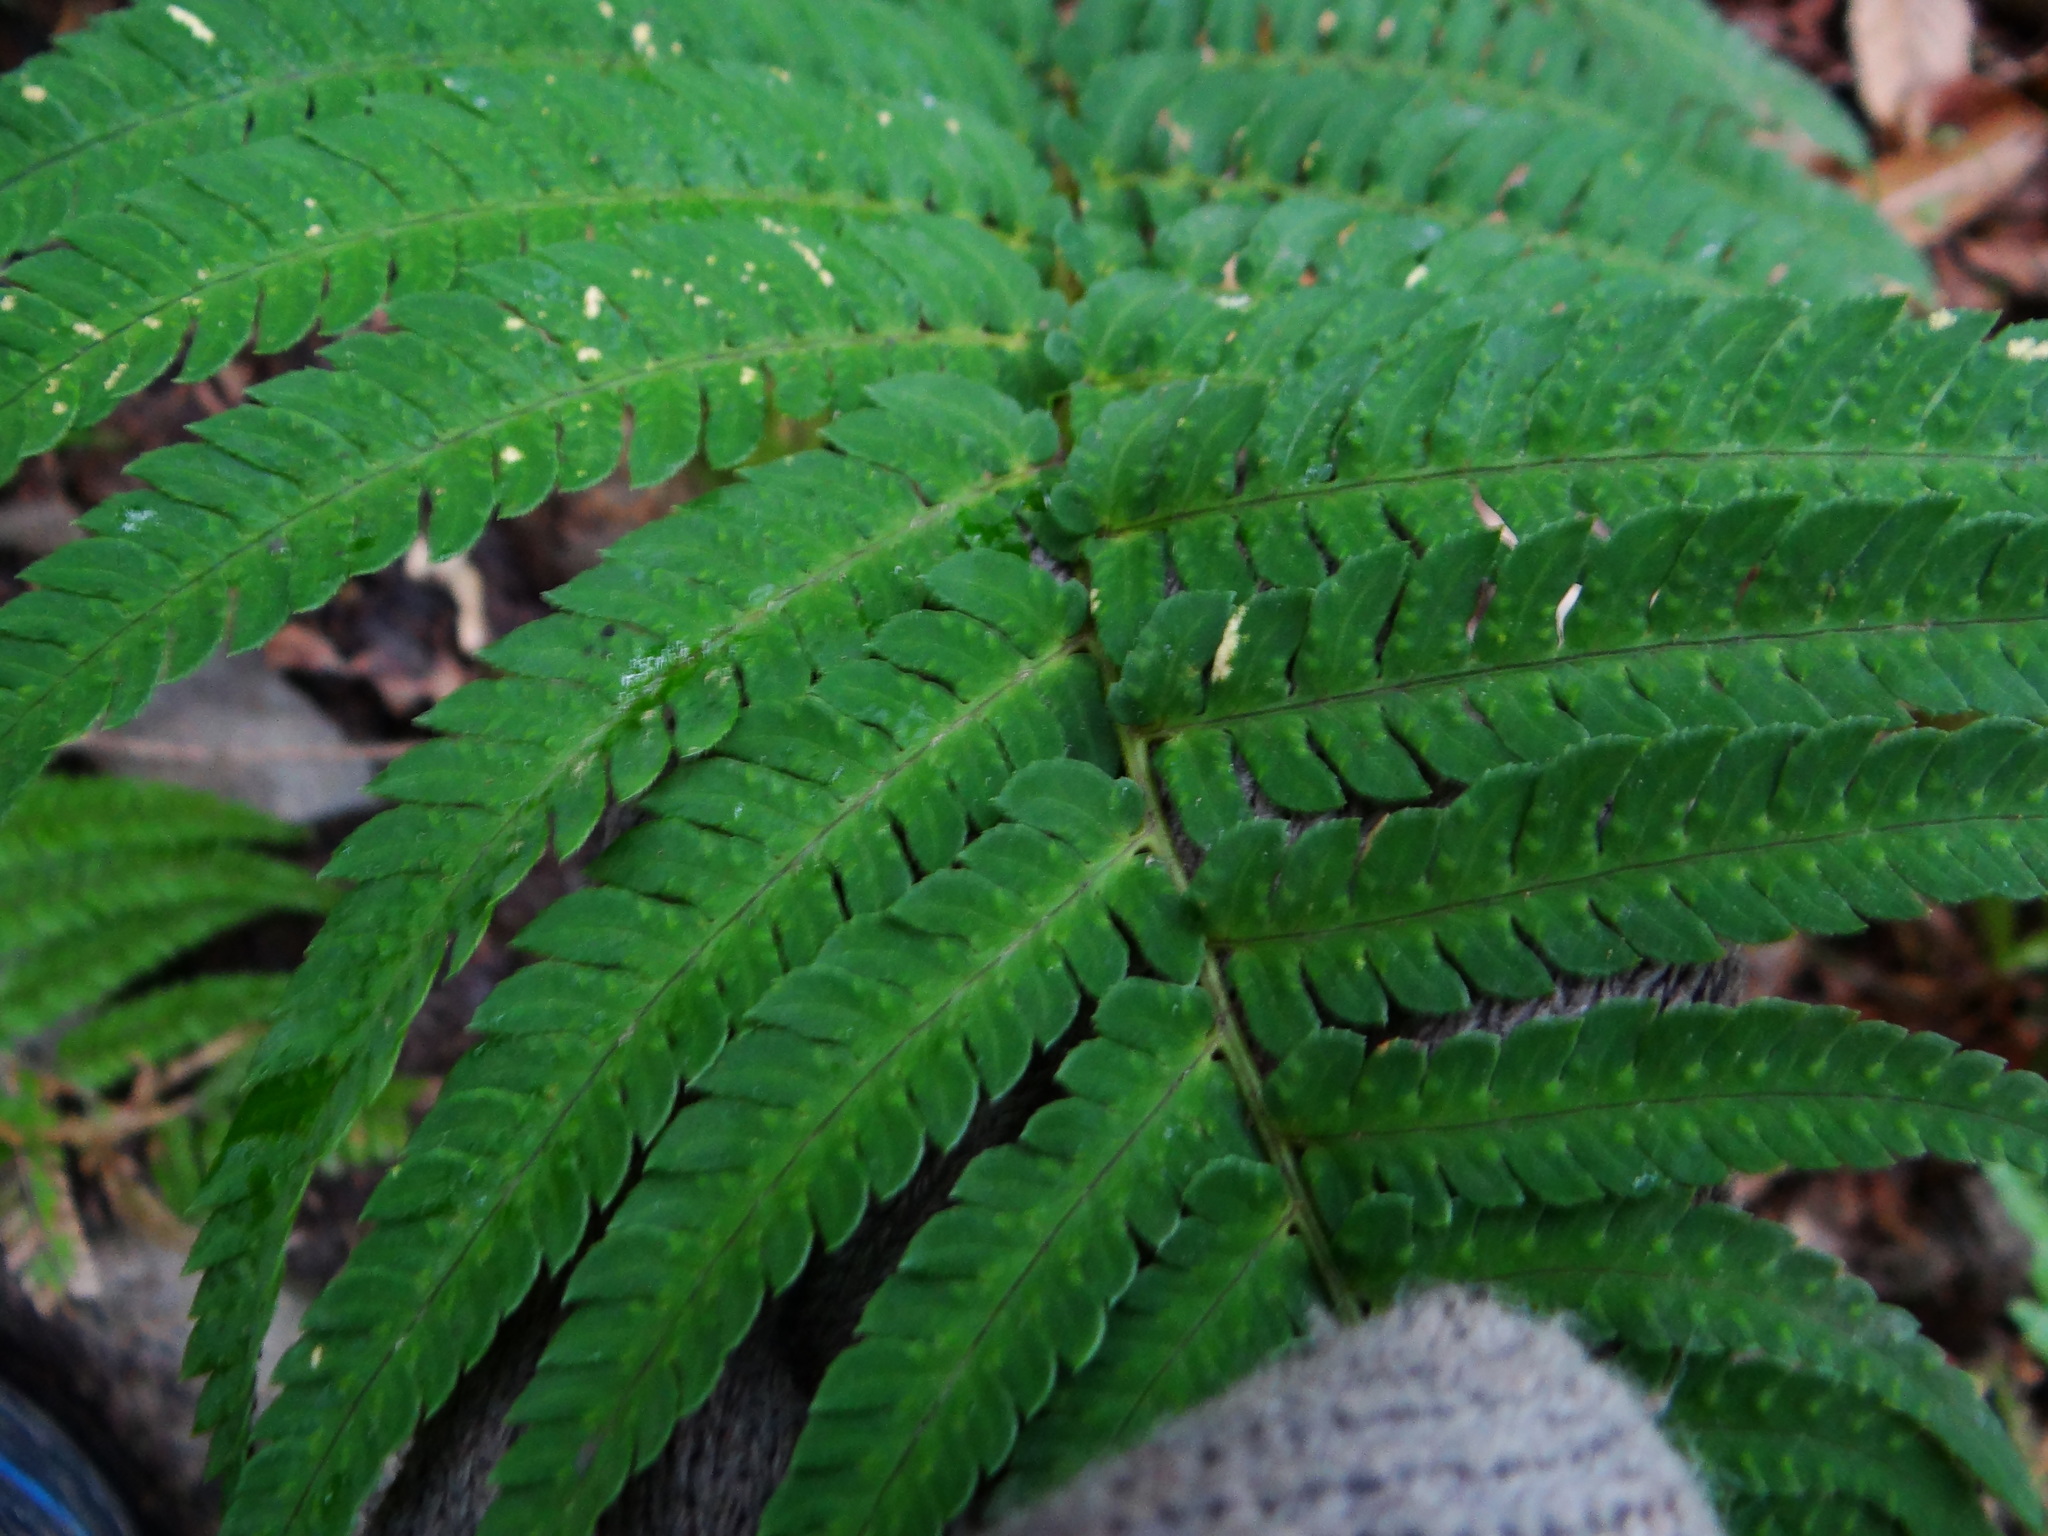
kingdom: Plantae
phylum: Tracheophyta
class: Polypodiopsida
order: Polypodiales
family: Dryopteridaceae
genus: Dryopteris
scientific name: Dryopteris varia
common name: Japanese holly fern
